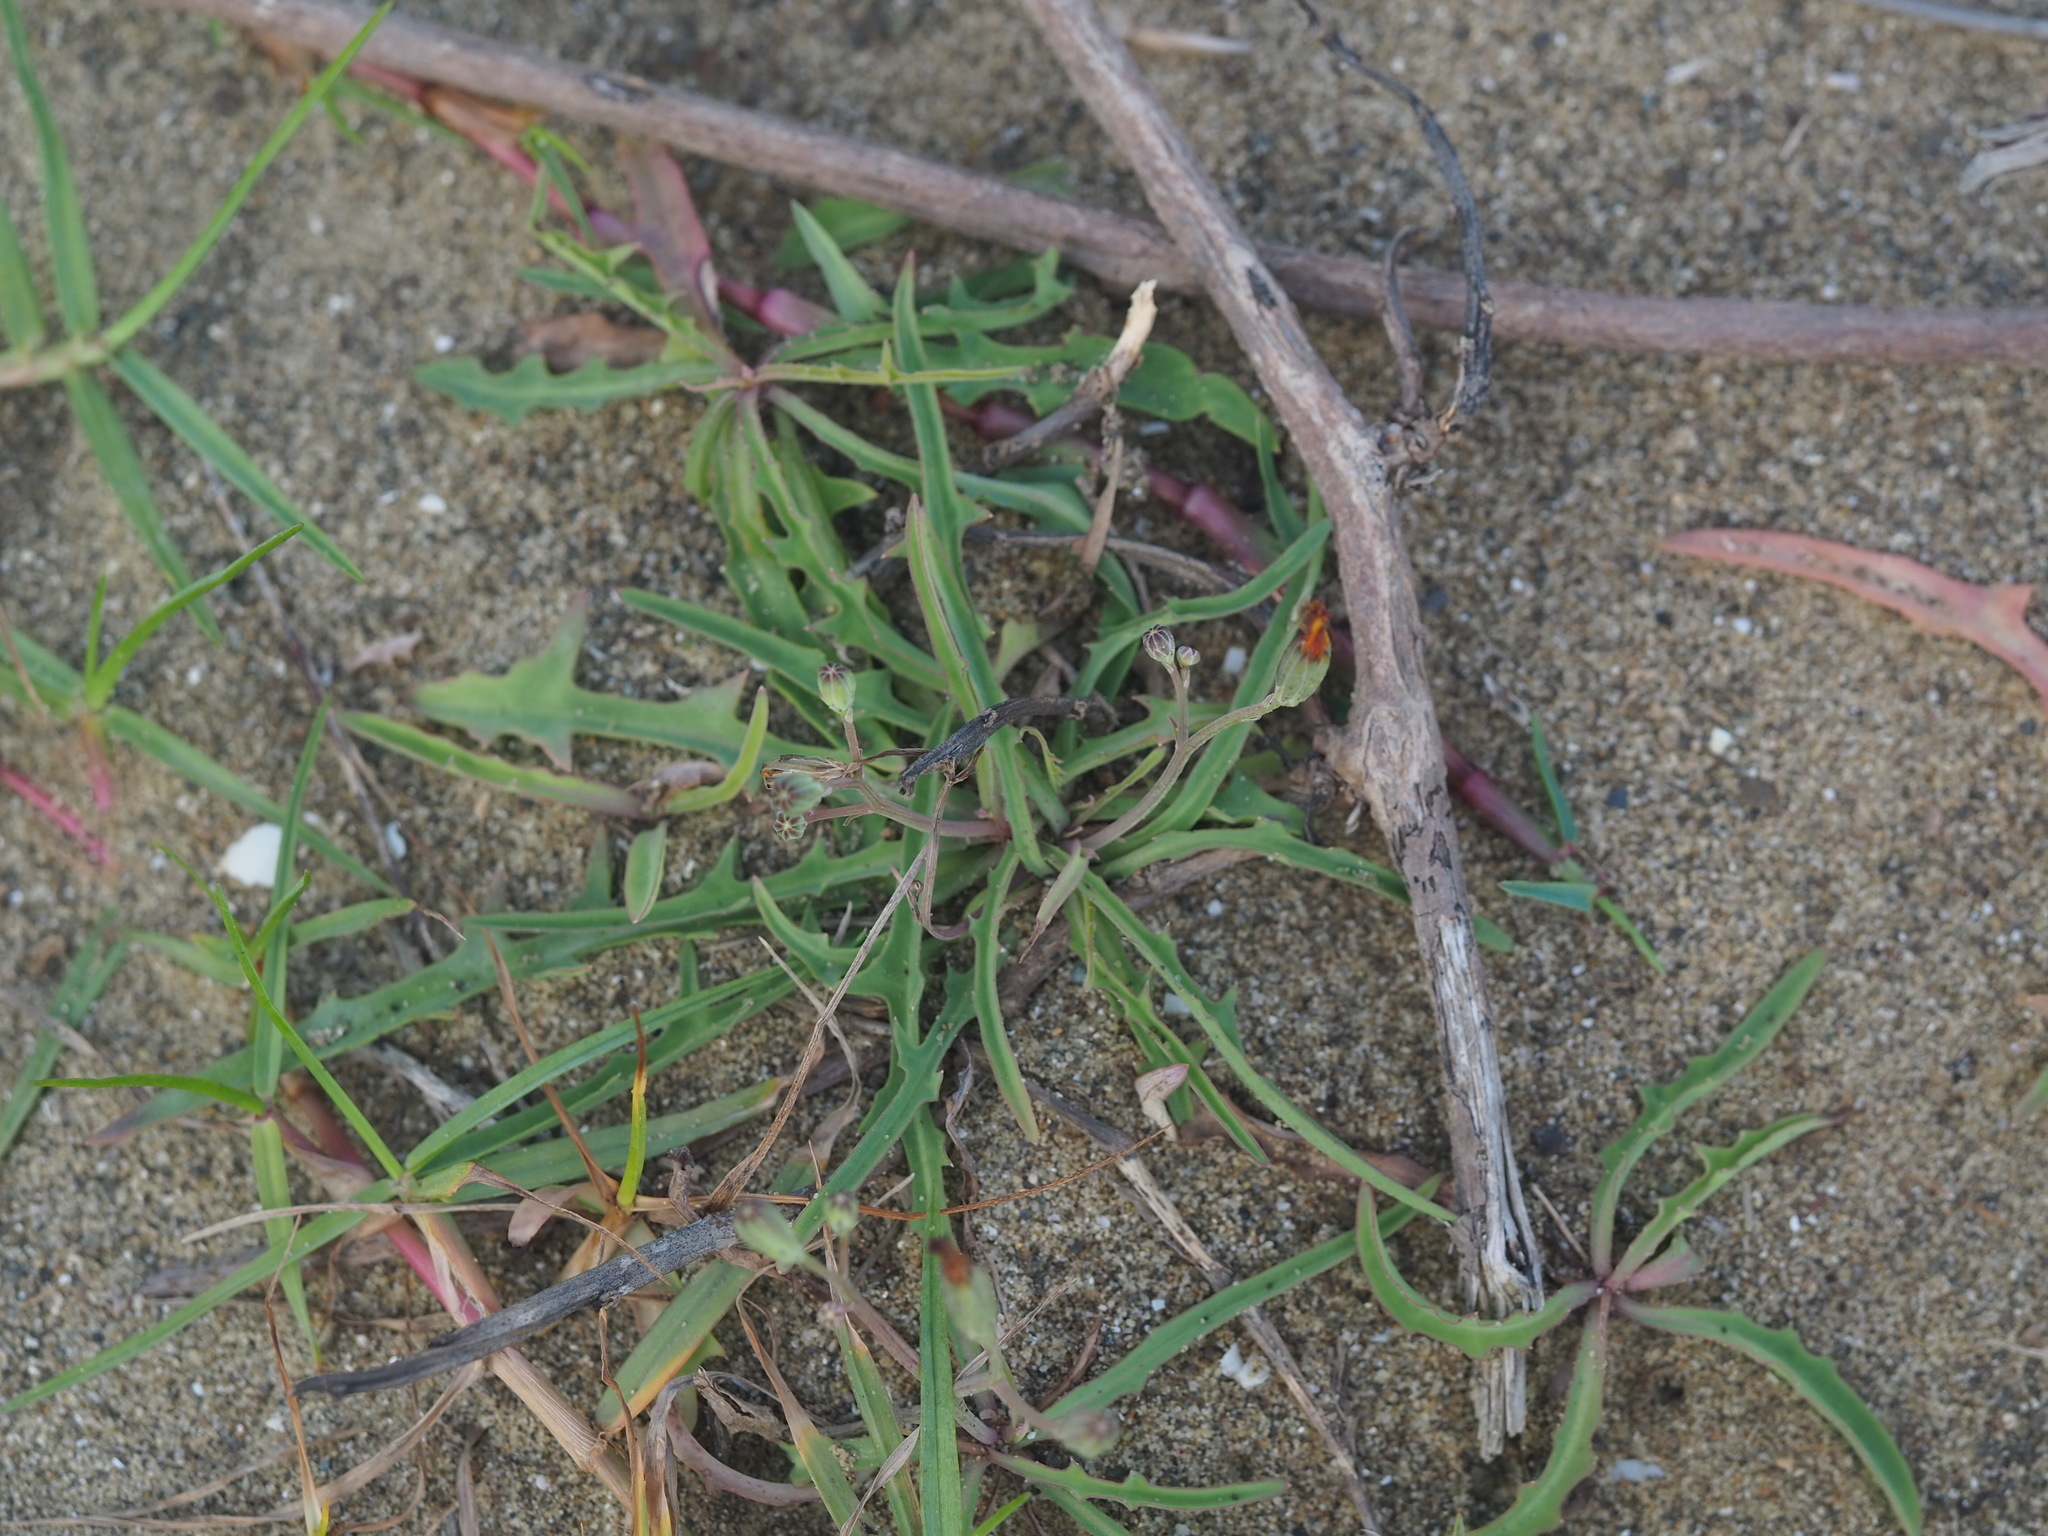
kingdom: Plantae
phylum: Tracheophyta
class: Magnoliopsida
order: Asterales
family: Asteraceae
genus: Ixeris
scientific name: Ixeris japonica
